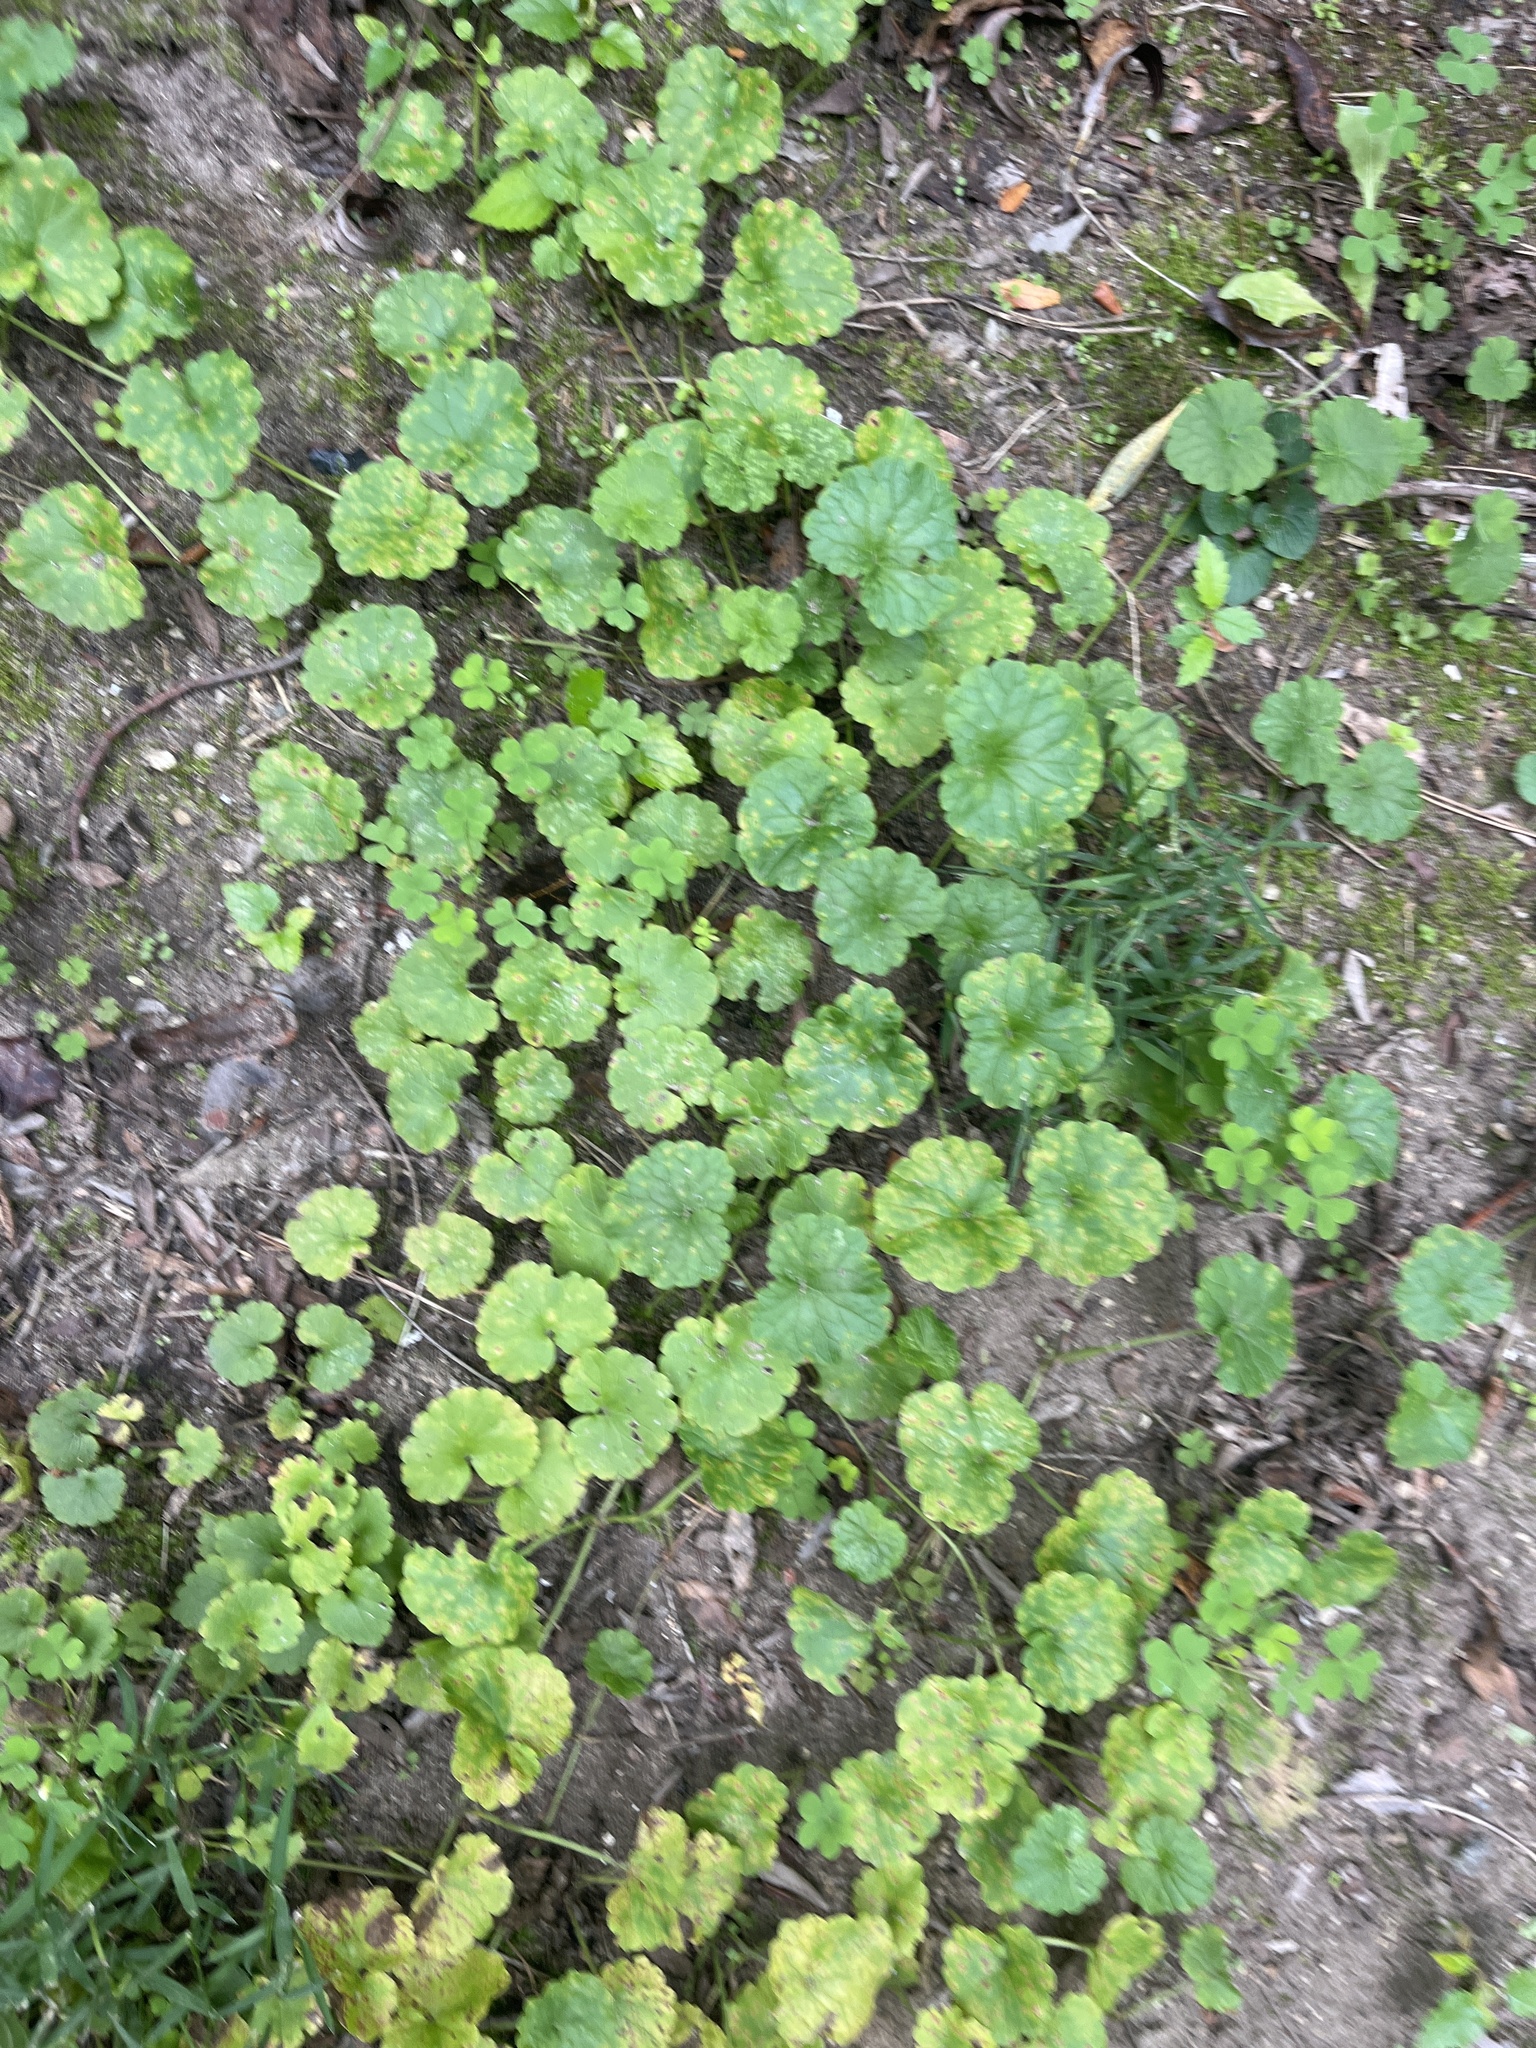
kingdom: Plantae
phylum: Tracheophyta
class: Magnoliopsida
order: Lamiales
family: Lamiaceae
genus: Glechoma
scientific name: Glechoma hederacea
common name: Ground ivy
